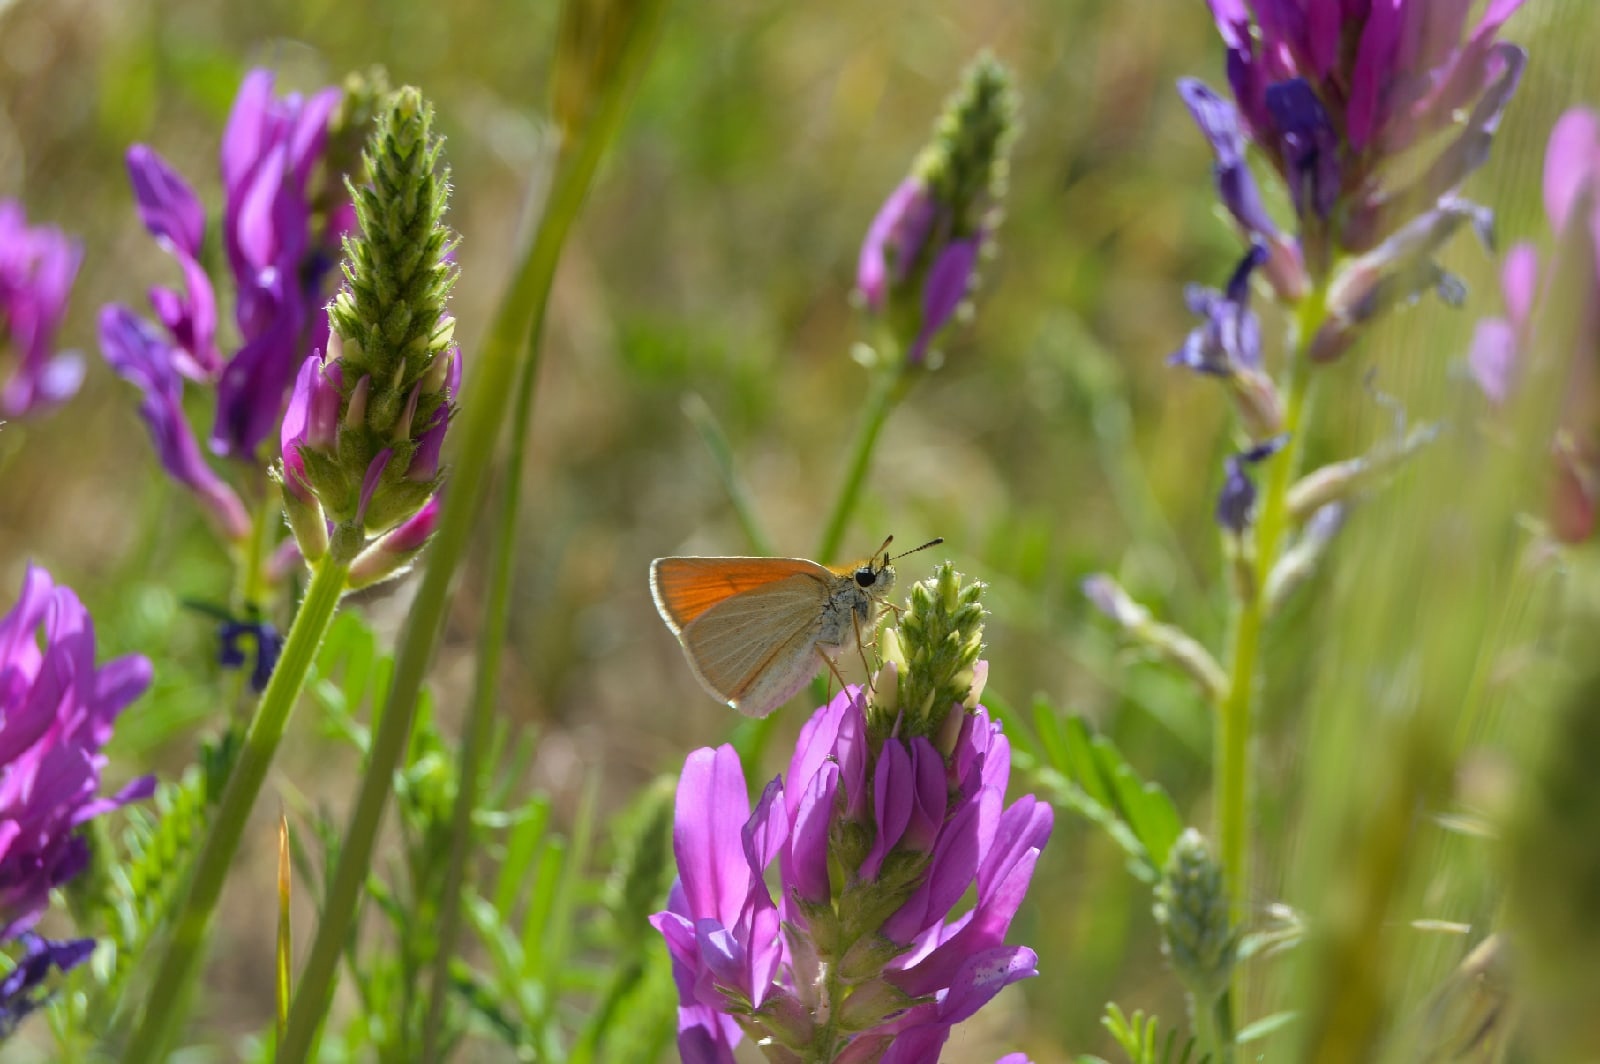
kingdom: Animalia
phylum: Arthropoda
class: Insecta
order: Lepidoptera
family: Hesperiidae
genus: Thymelicus
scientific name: Thymelicus lineola
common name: Essex skipper
